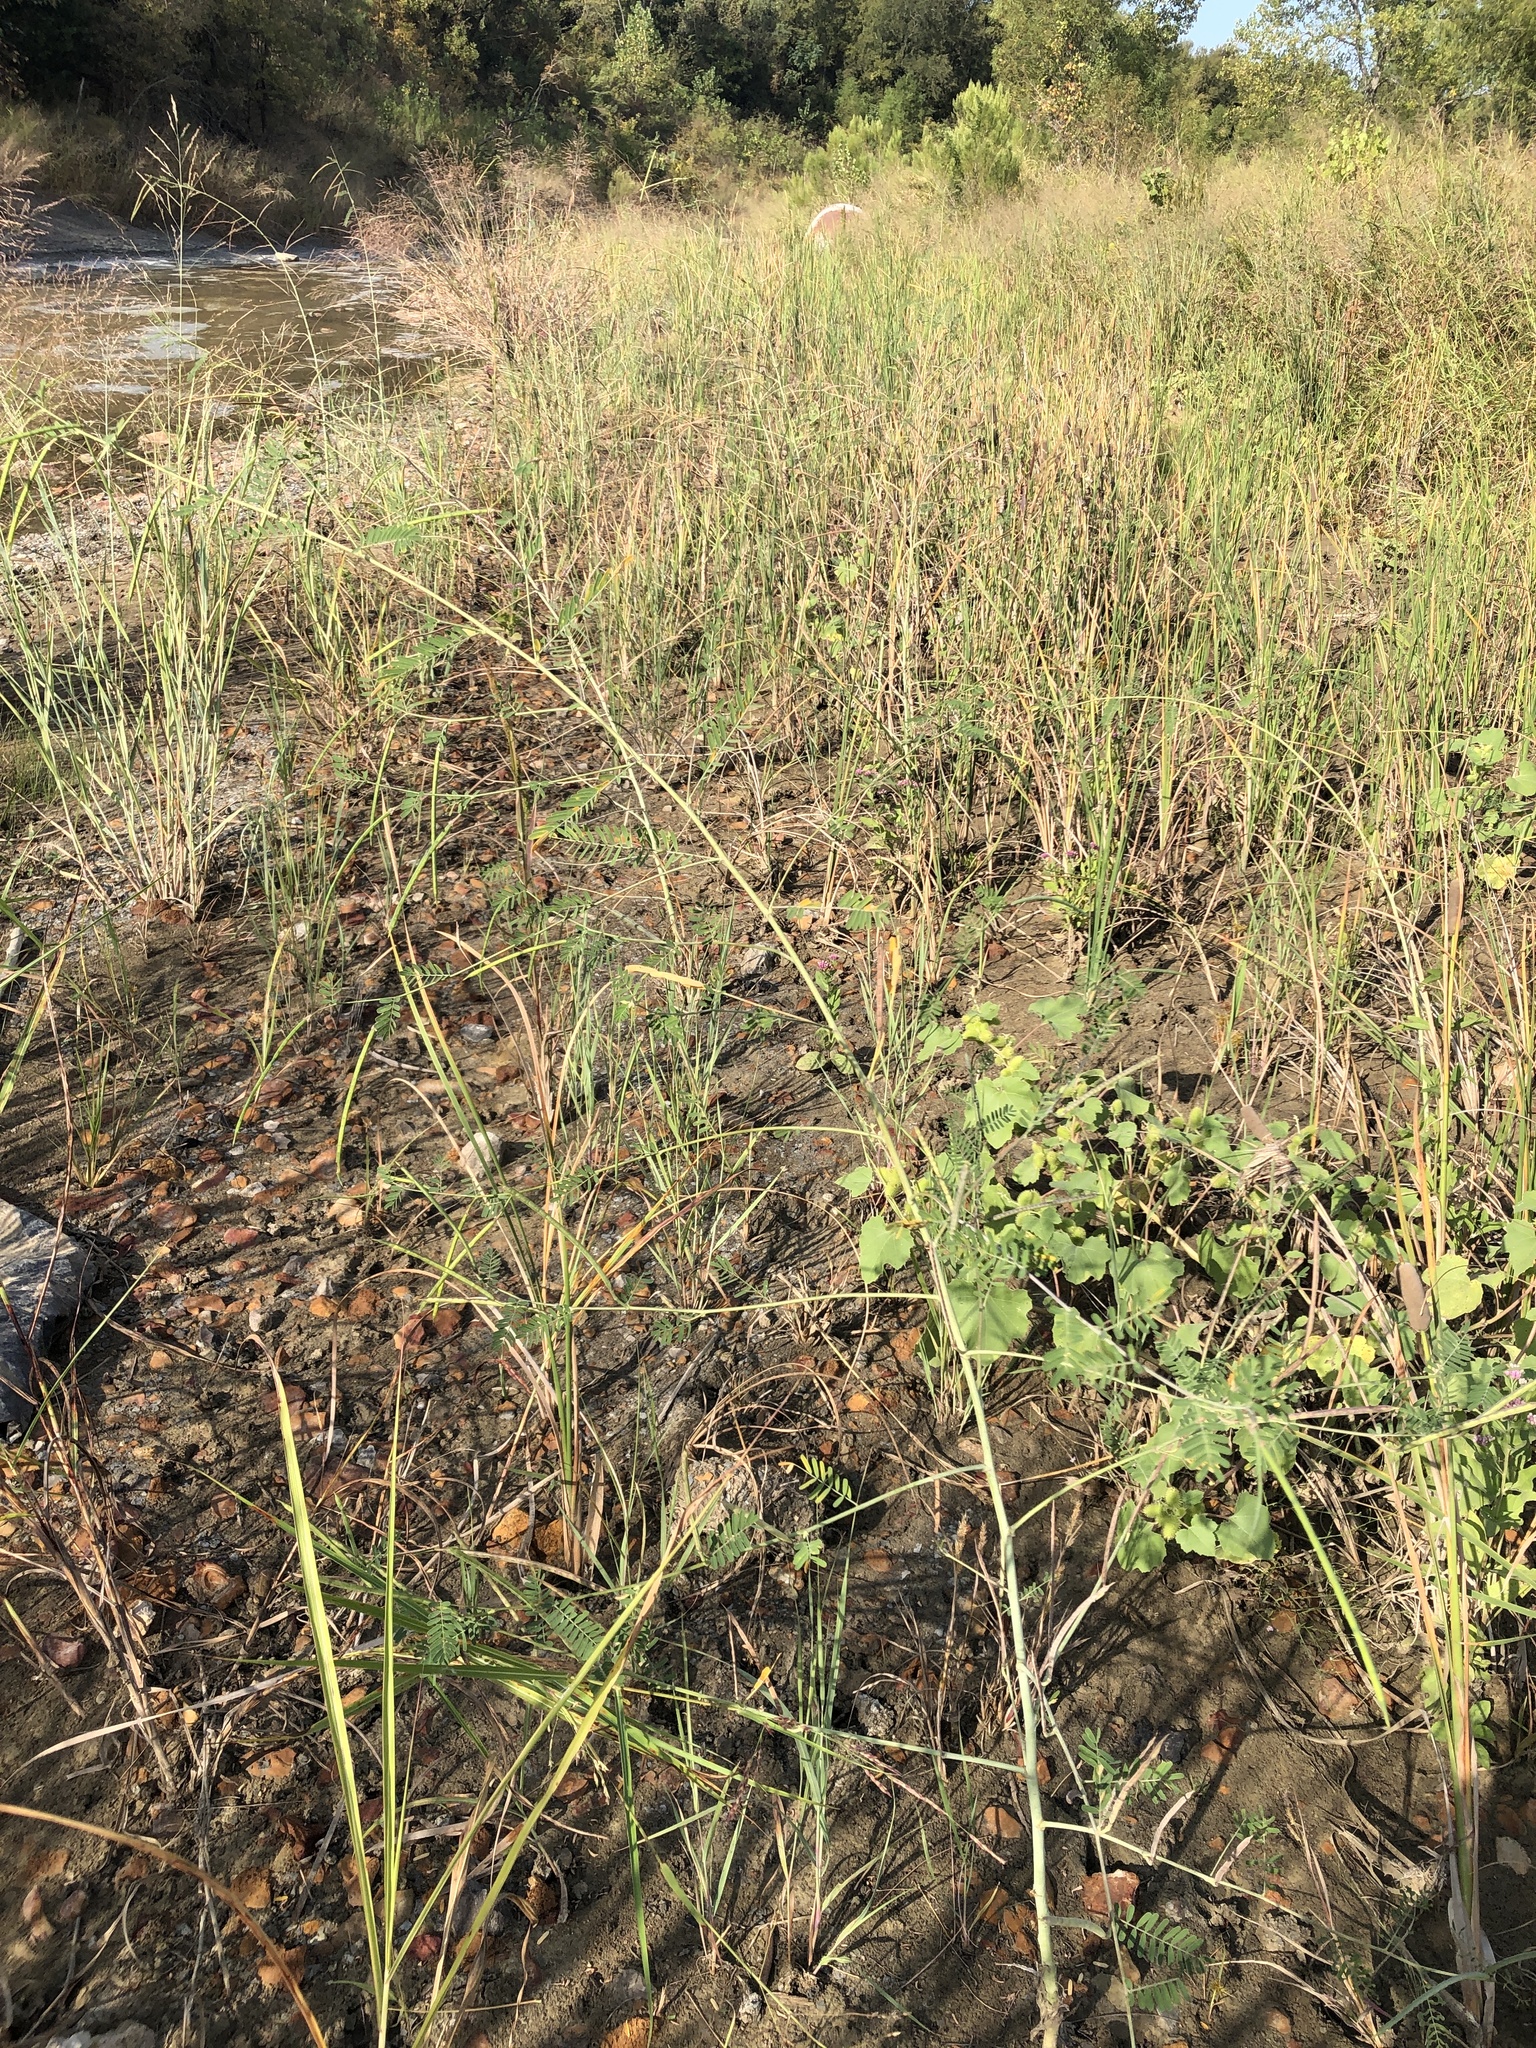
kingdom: Plantae
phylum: Tracheophyta
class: Magnoliopsida
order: Fabales
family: Fabaceae
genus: Sesbania
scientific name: Sesbania herbacea
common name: Bigpod sesbania
